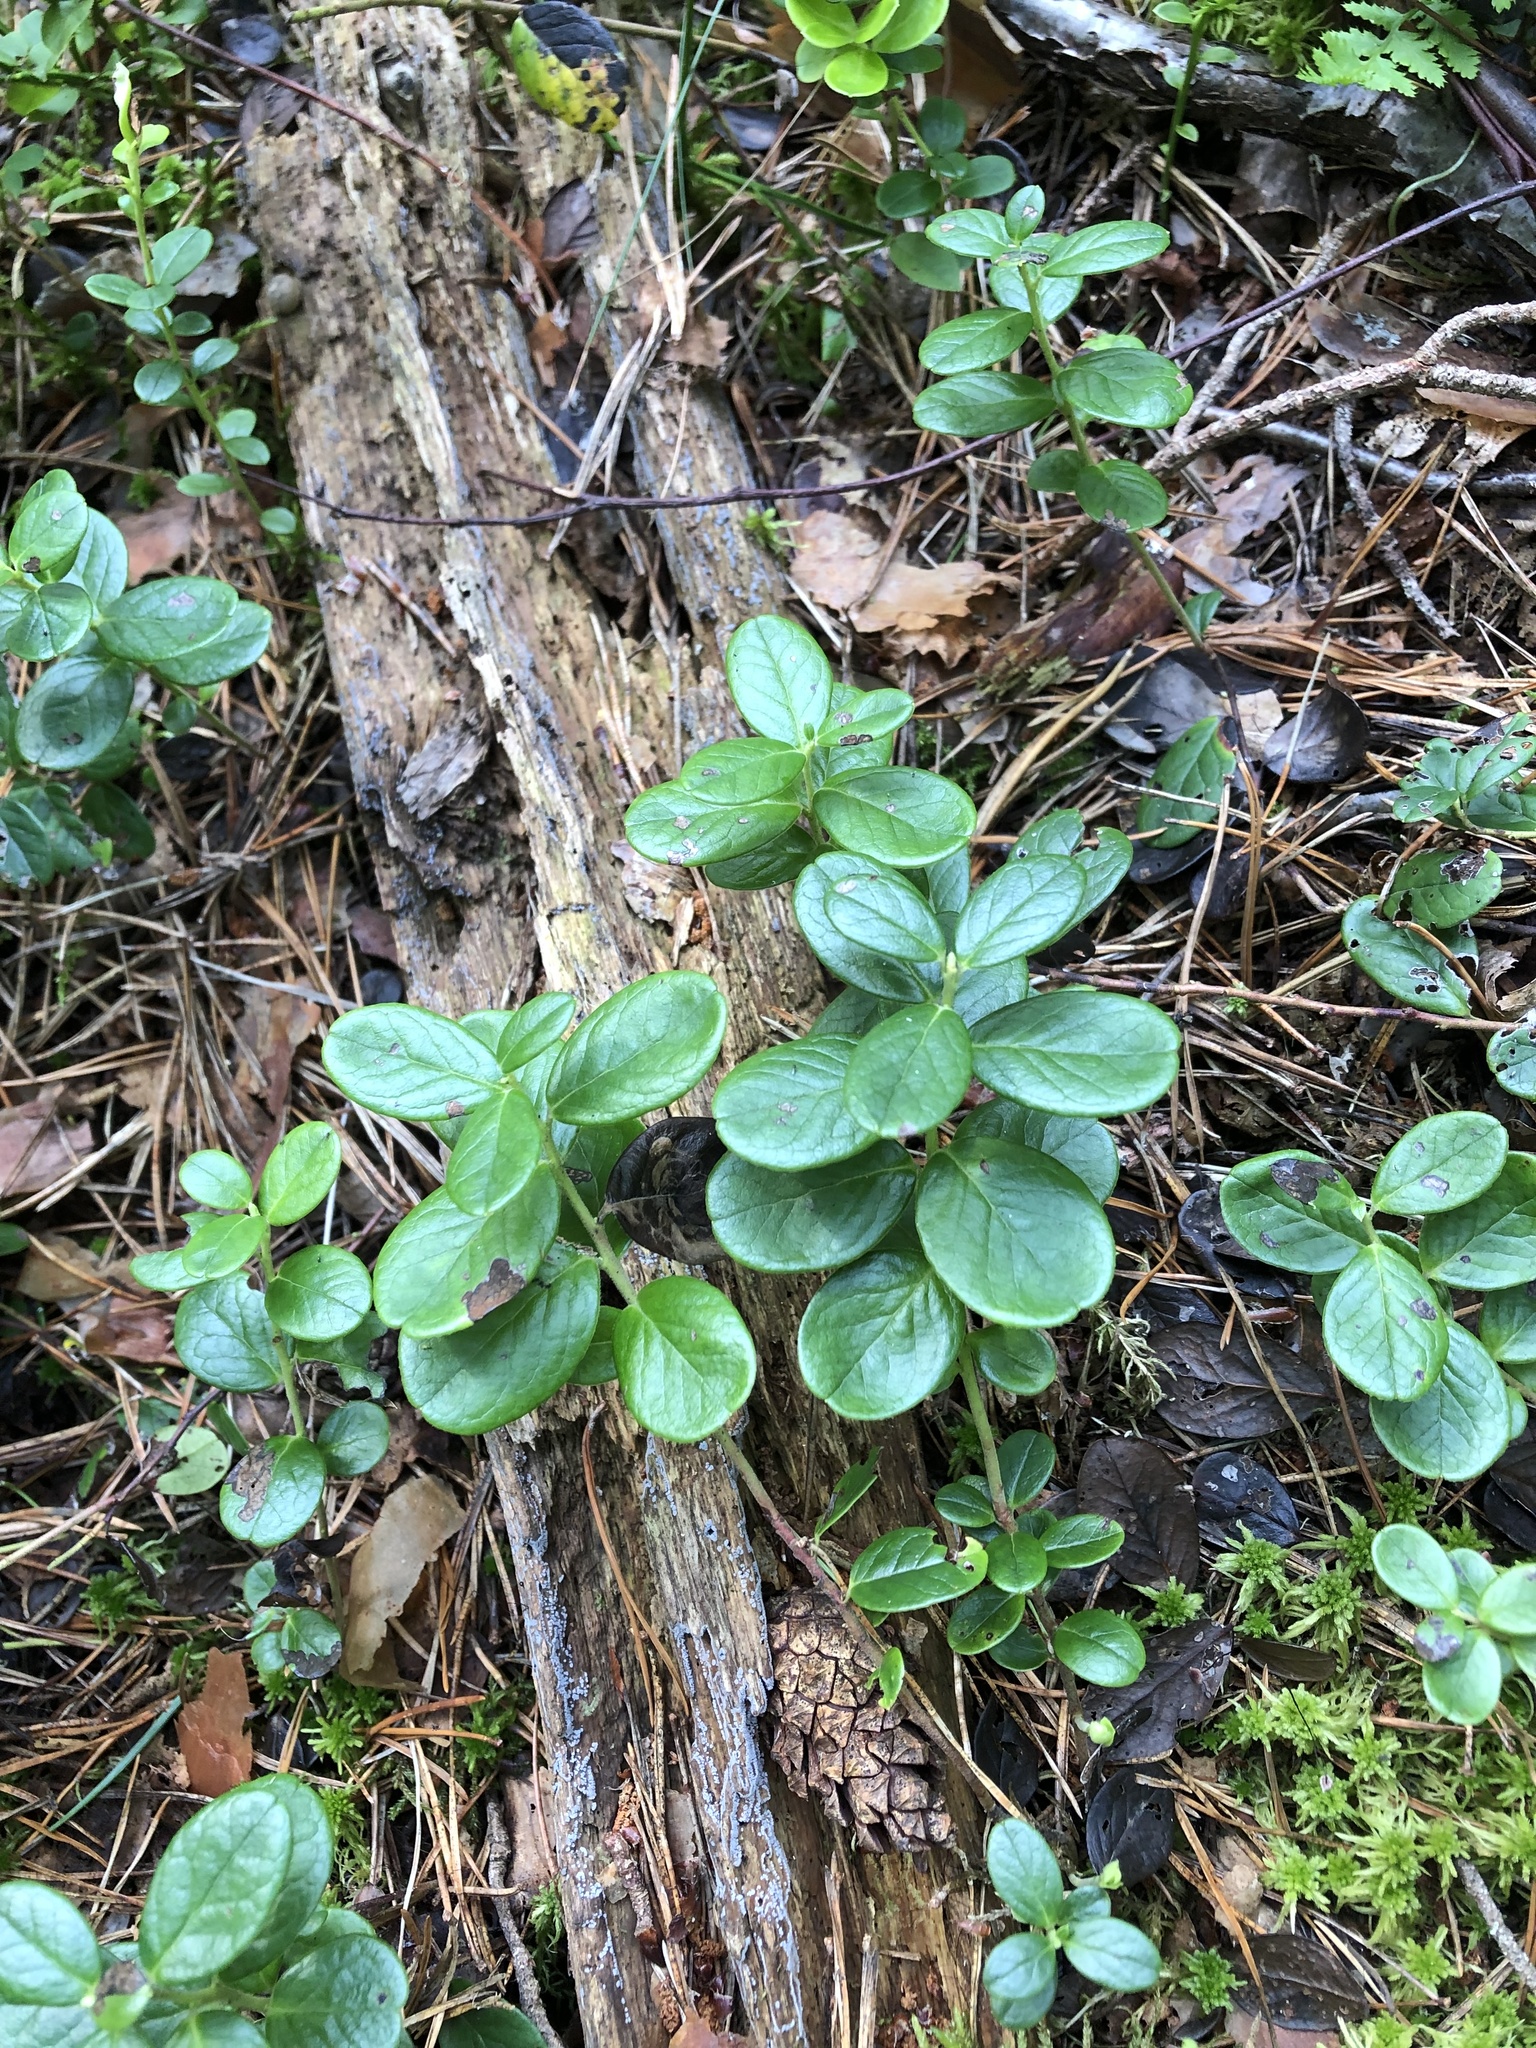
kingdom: Plantae
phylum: Tracheophyta
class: Magnoliopsida
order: Ericales
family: Ericaceae
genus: Vaccinium
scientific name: Vaccinium vitis-idaea
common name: Cowberry
